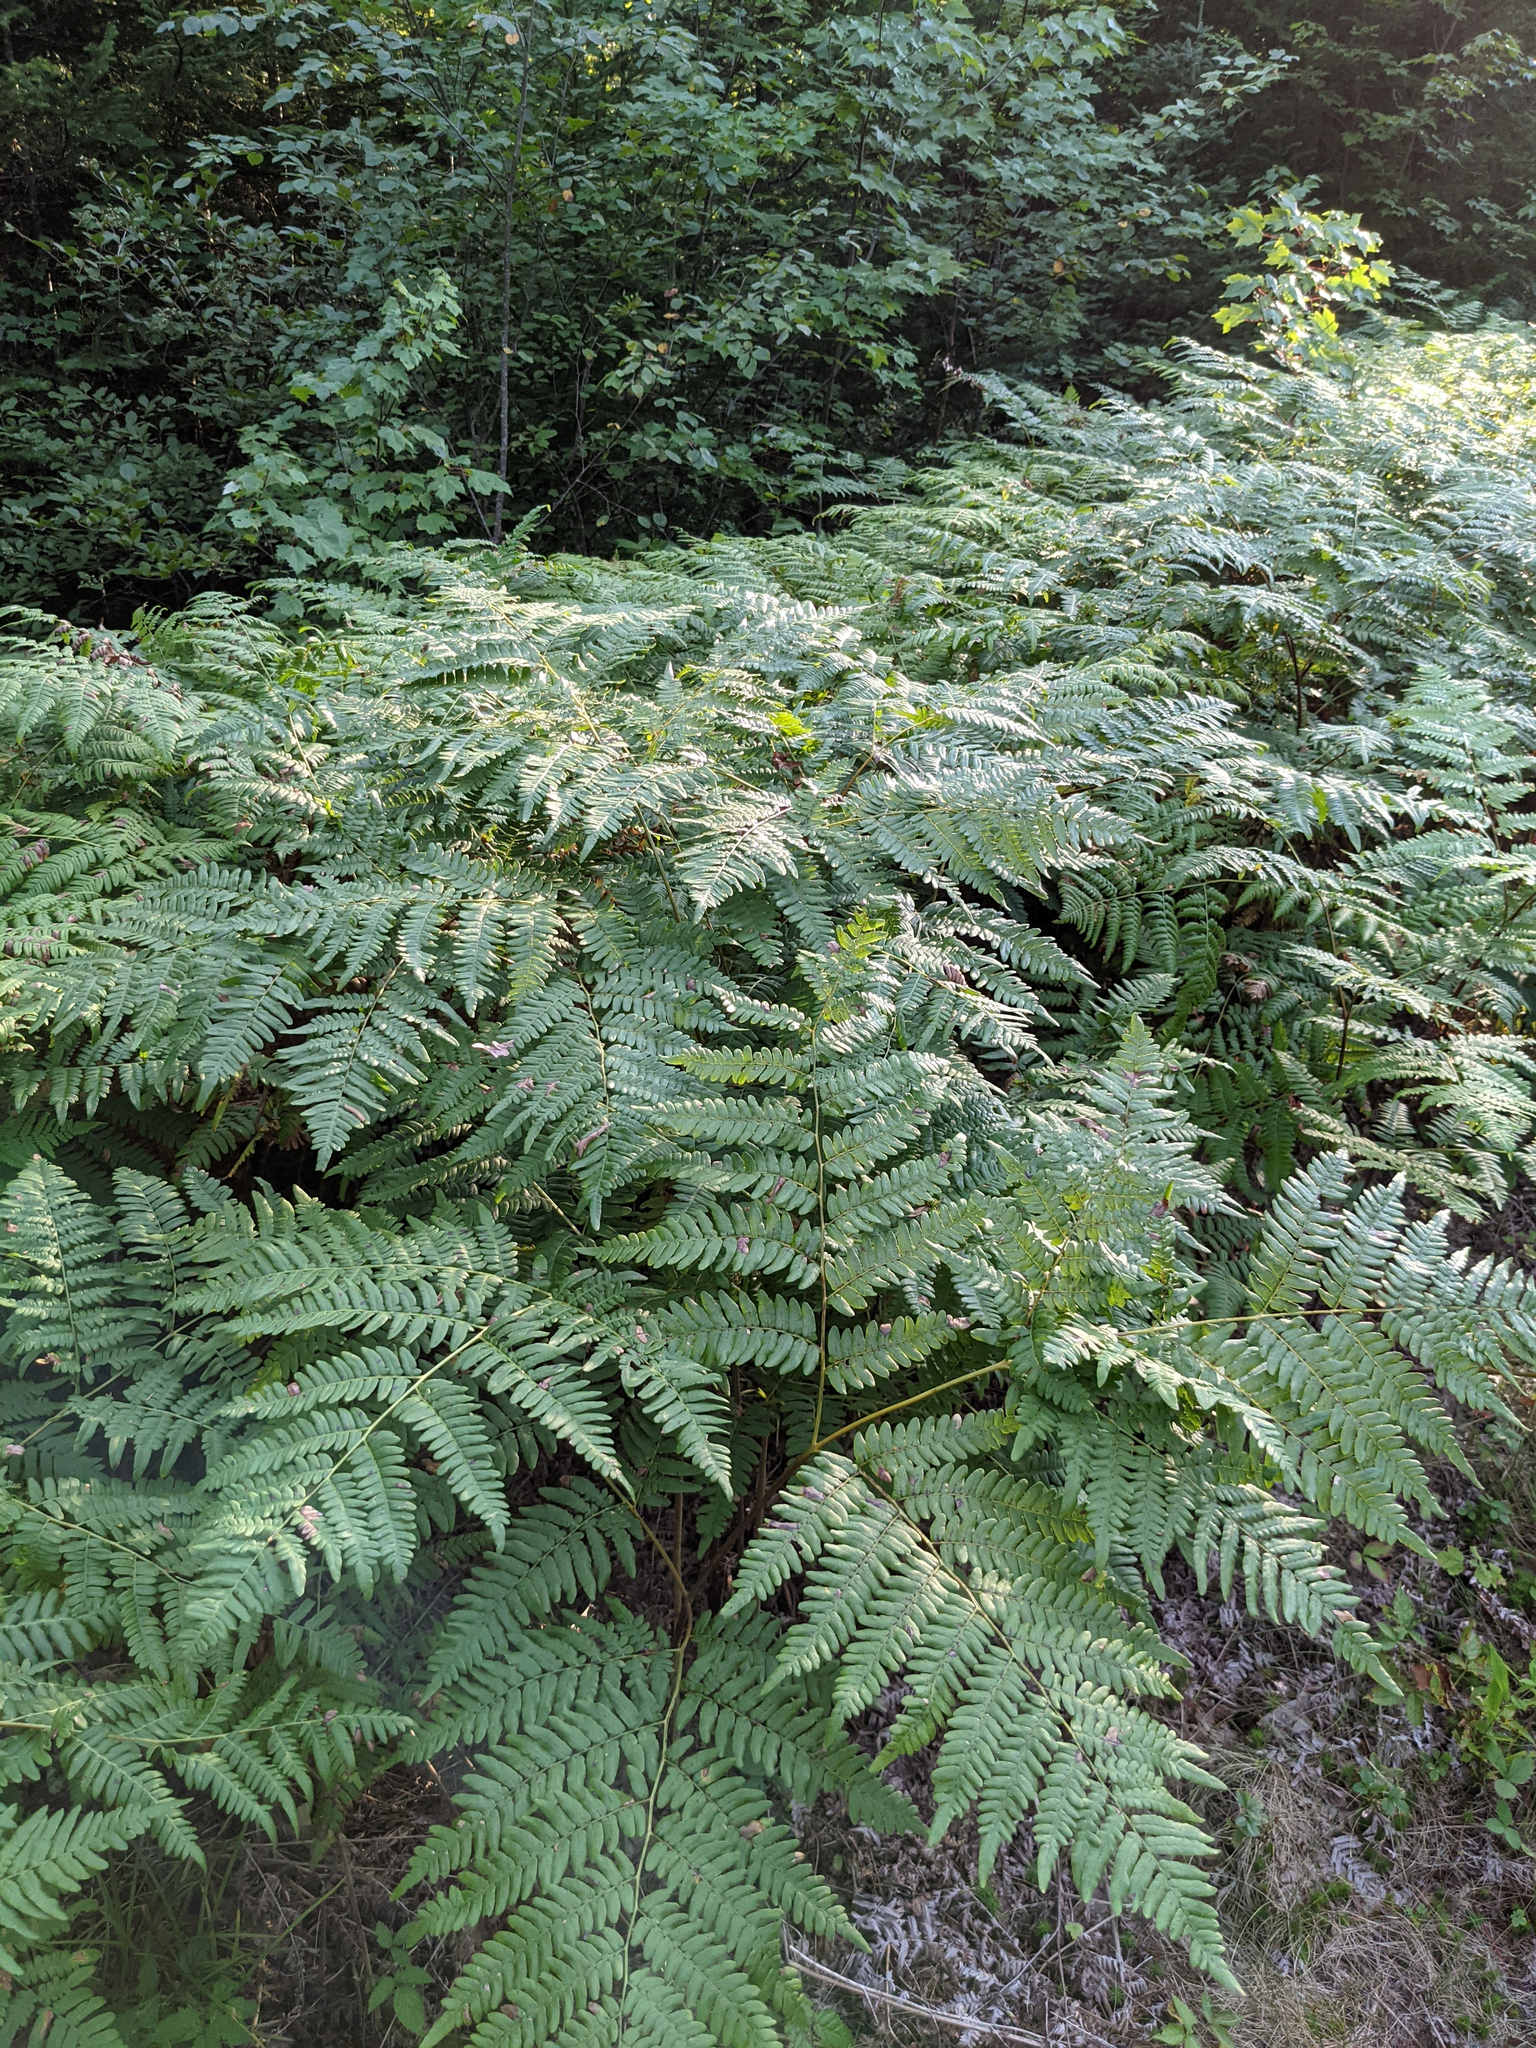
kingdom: Plantae
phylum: Tracheophyta
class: Polypodiopsida
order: Polypodiales
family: Dennstaedtiaceae
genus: Pteridium
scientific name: Pteridium aquilinum
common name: Bracken
